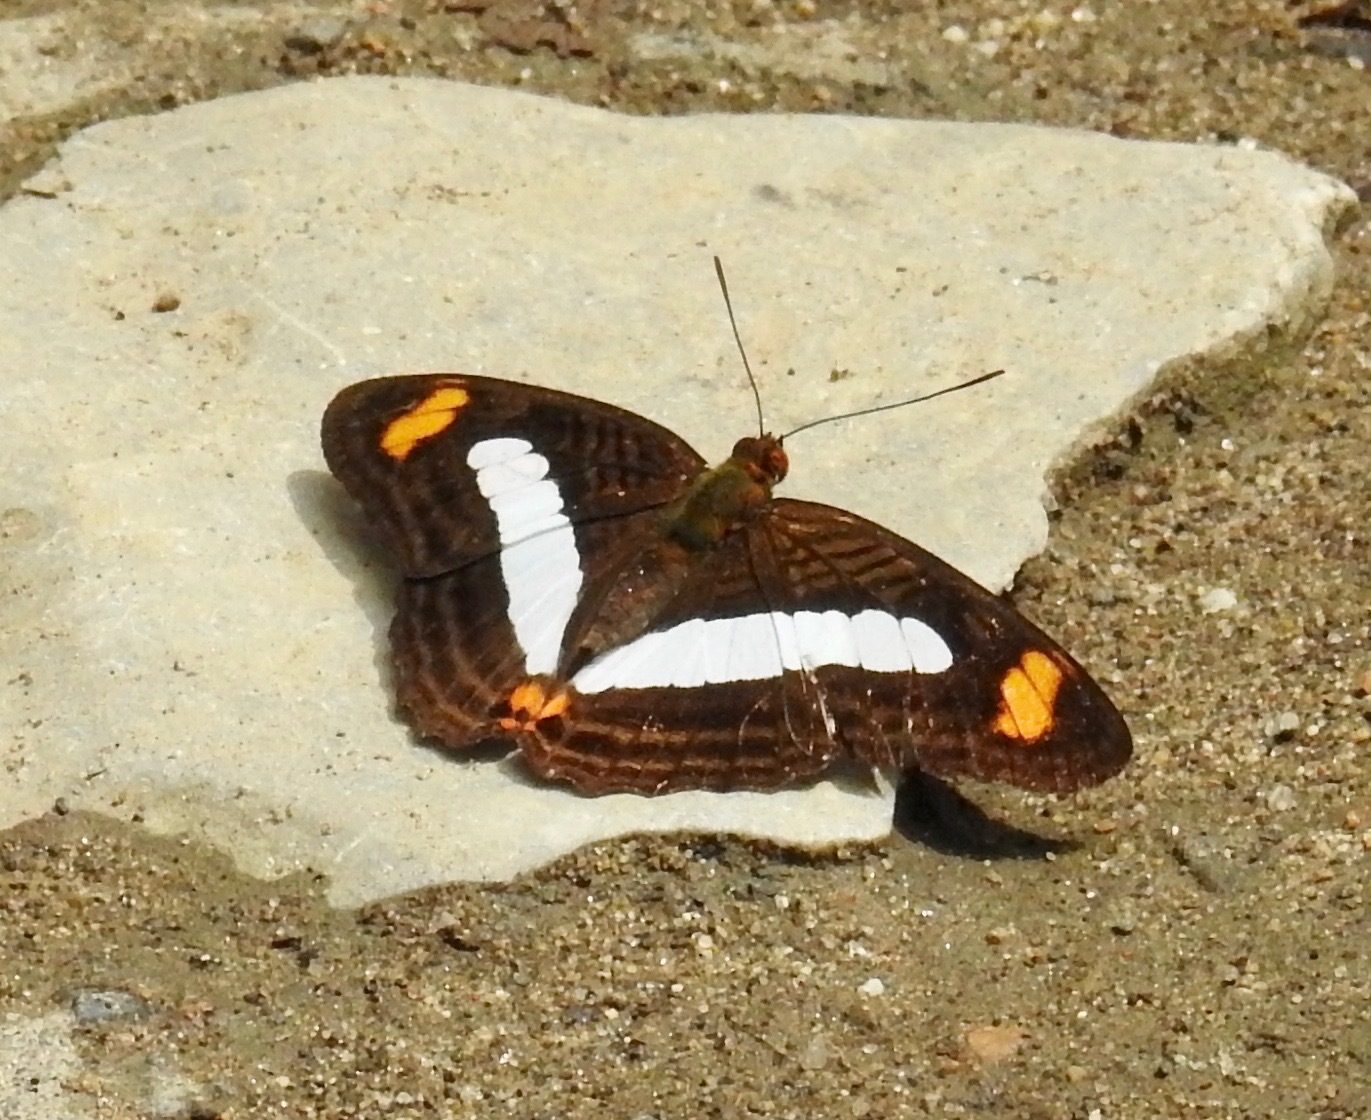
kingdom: Animalia
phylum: Arthropoda
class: Insecta
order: Lepidoptera
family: Nymphalidae
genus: Limenitis
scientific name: Limenitis Adelpha iphiclus
